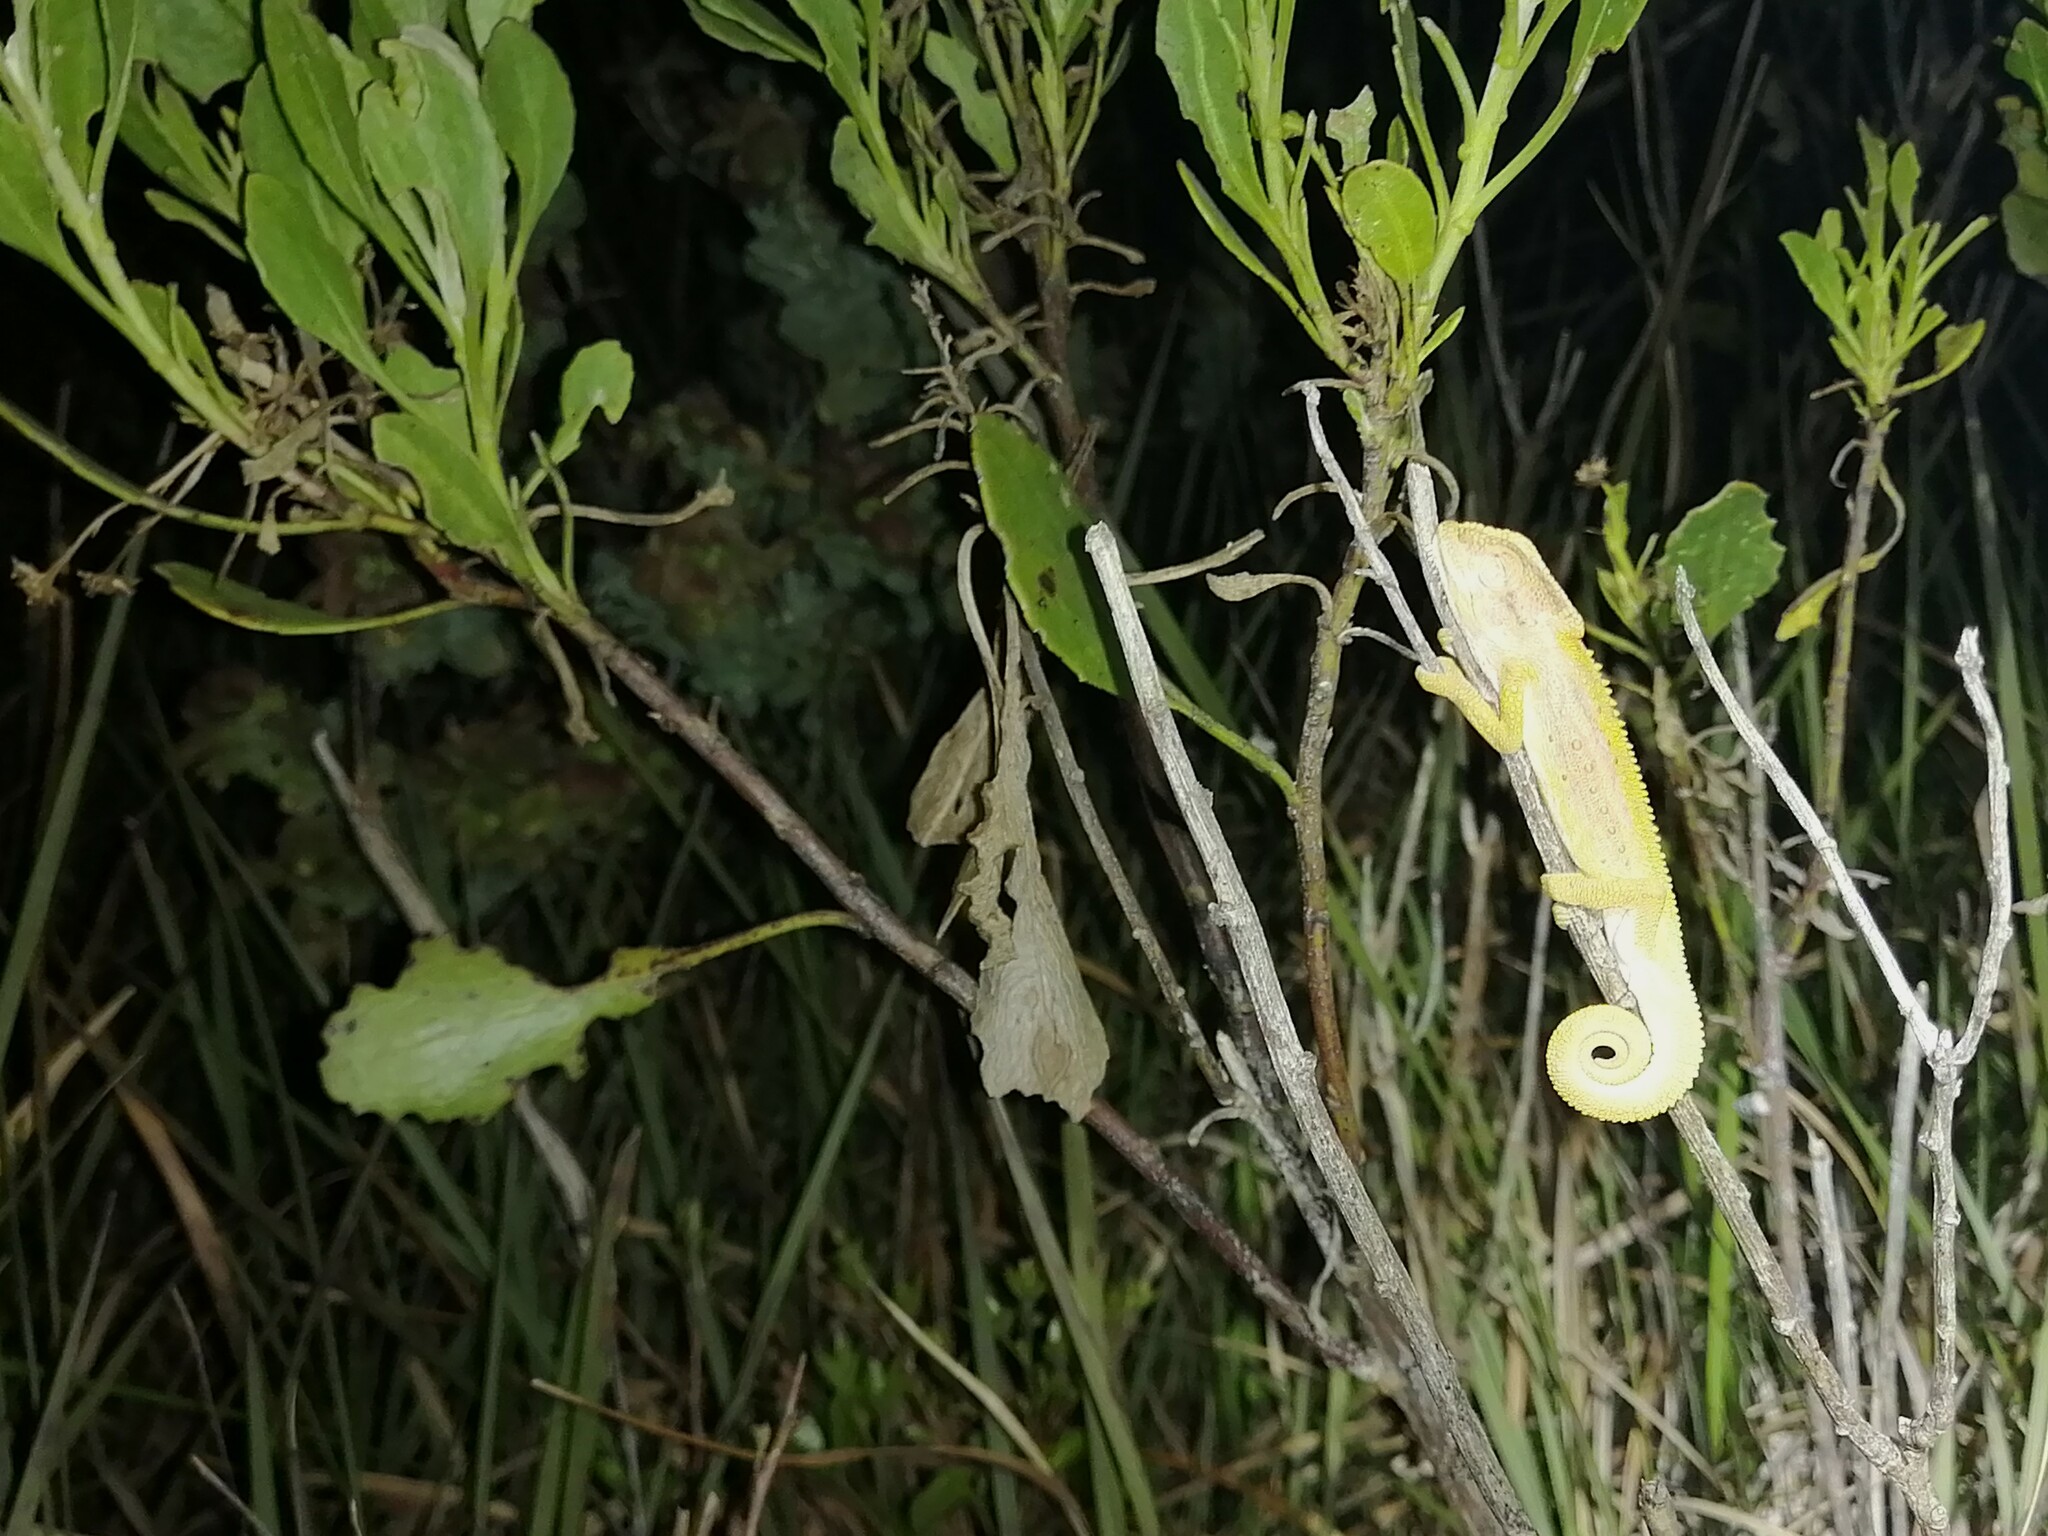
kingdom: Animalia
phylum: Chordata
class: Squamata
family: Chamaeleonidae
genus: Bradypodion
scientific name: Bradypodion pumilum
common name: Cape dwarf chameleon
